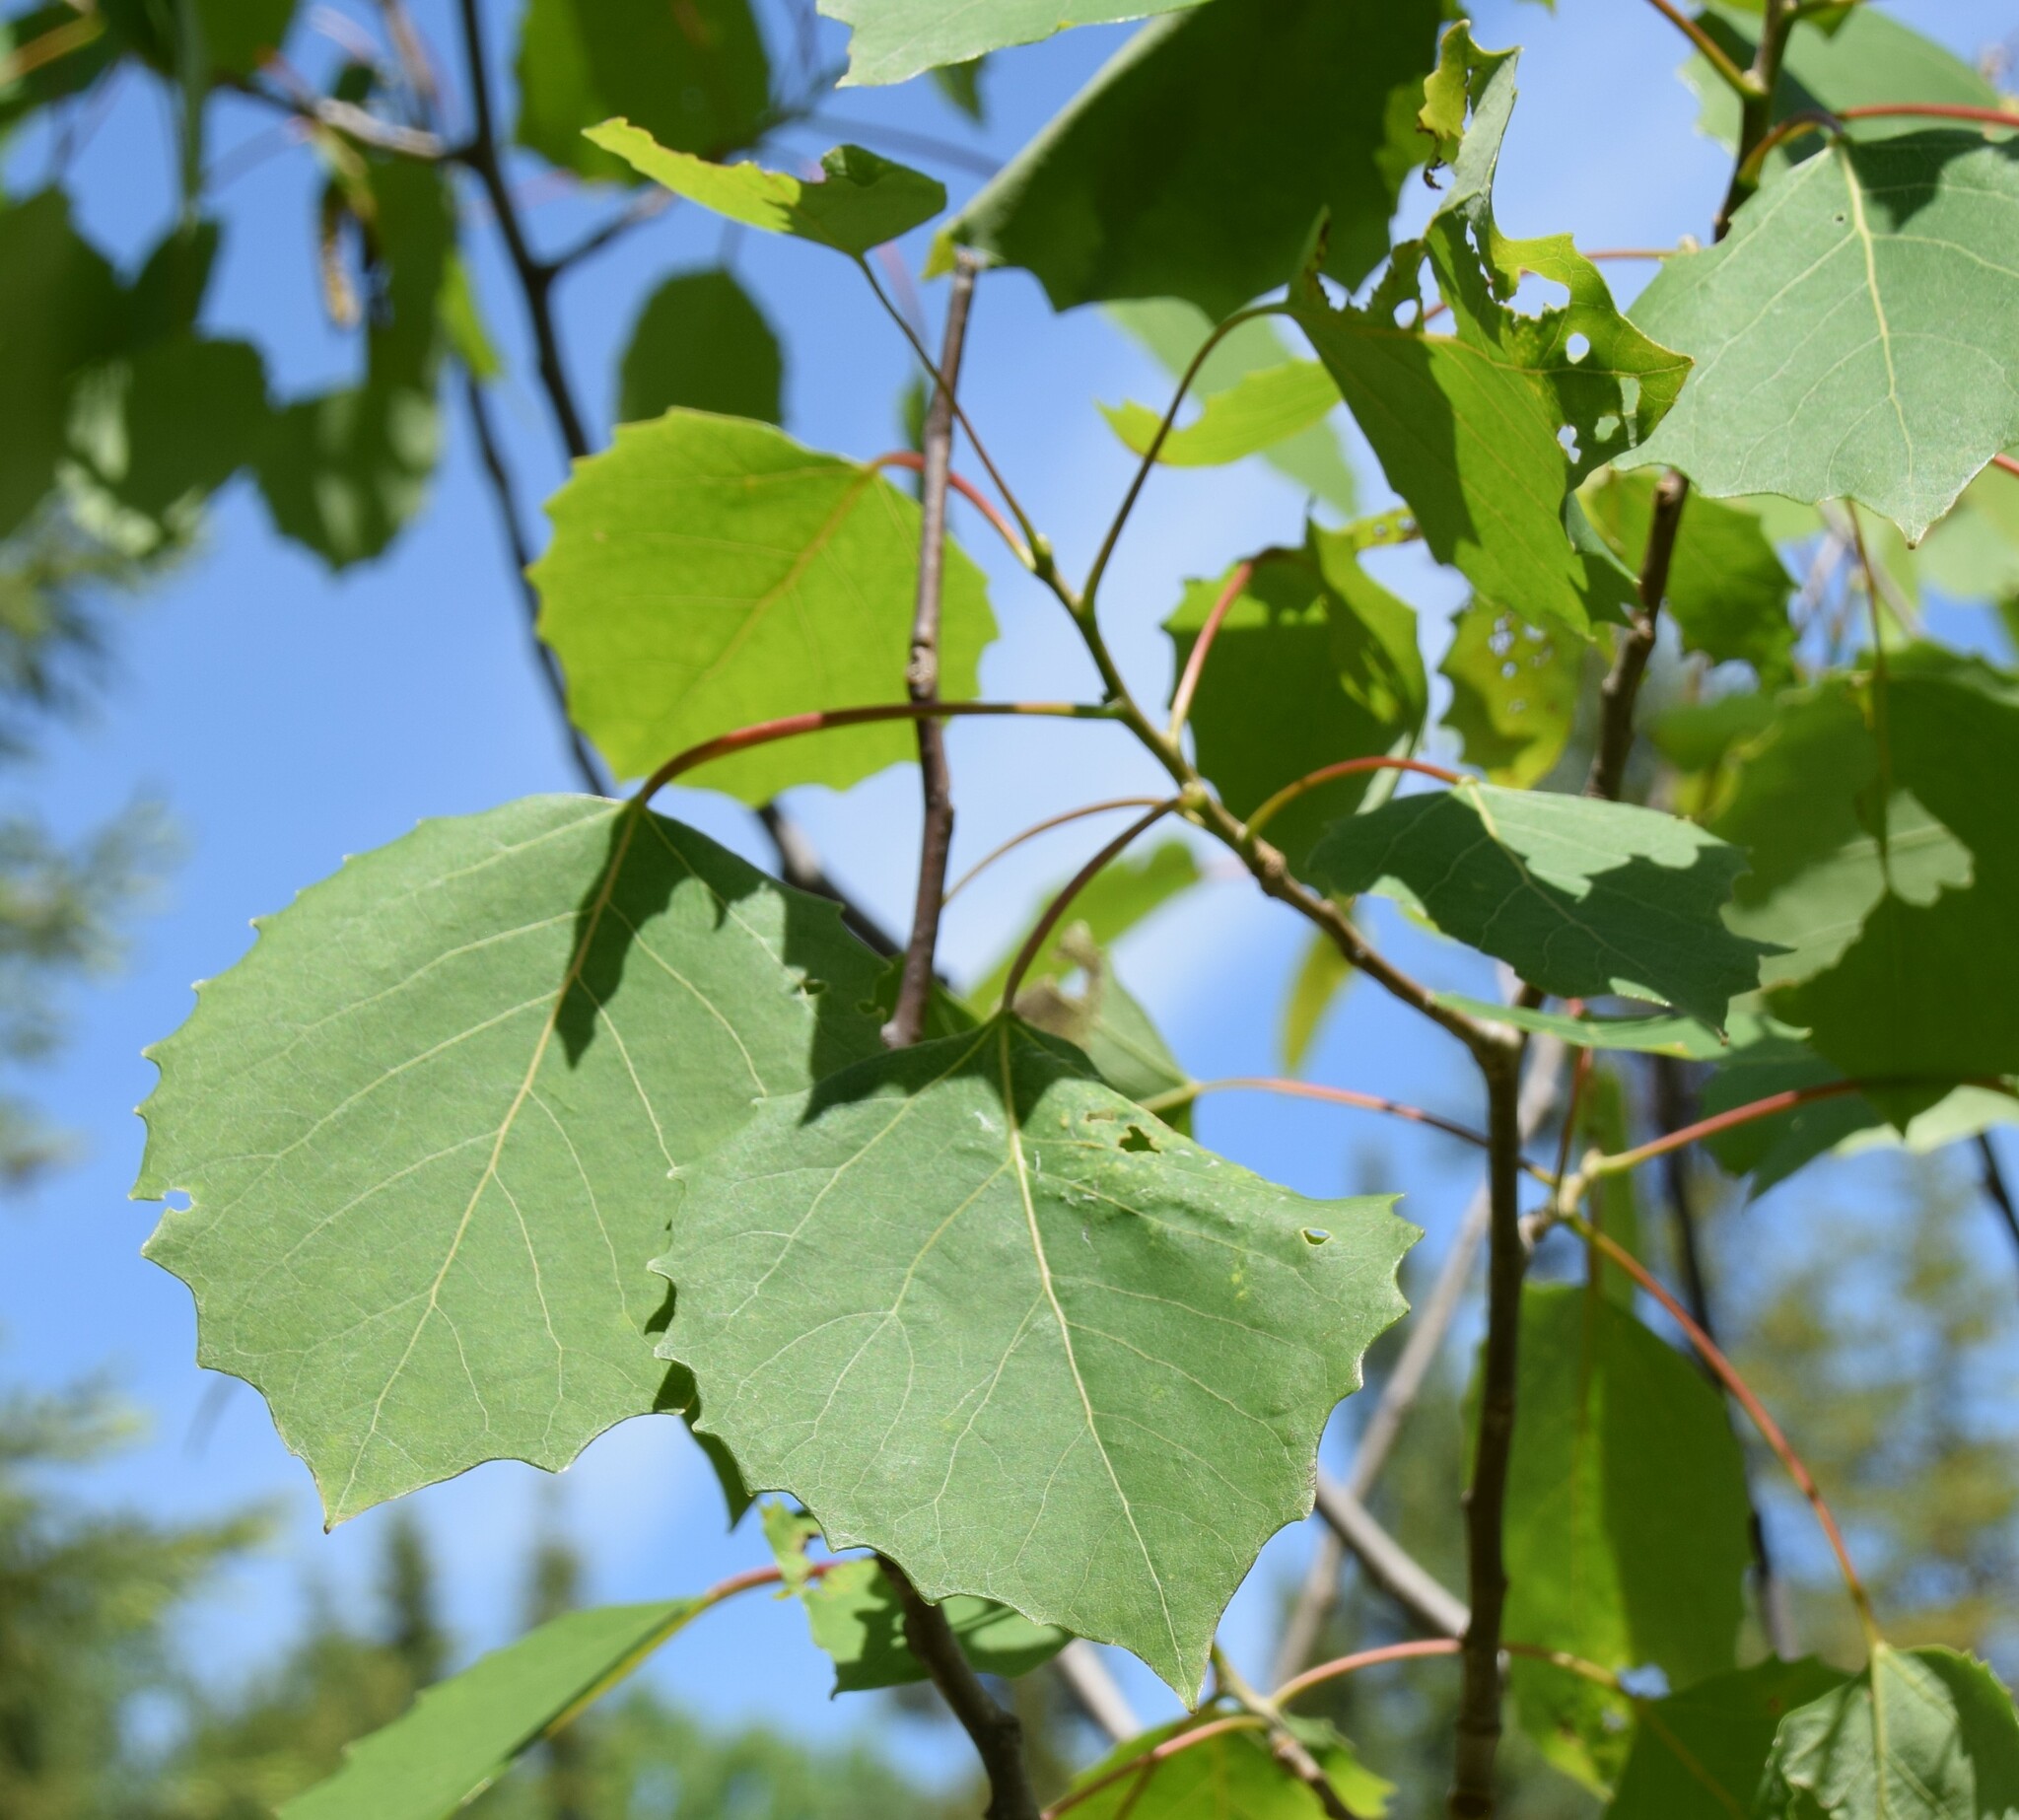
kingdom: Plantae
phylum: Tracheophyta
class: Magnoliopsida
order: Malpighiales
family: Salicaceae
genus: Populus
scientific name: Populus grandidentata
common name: Bigtooth aspen
